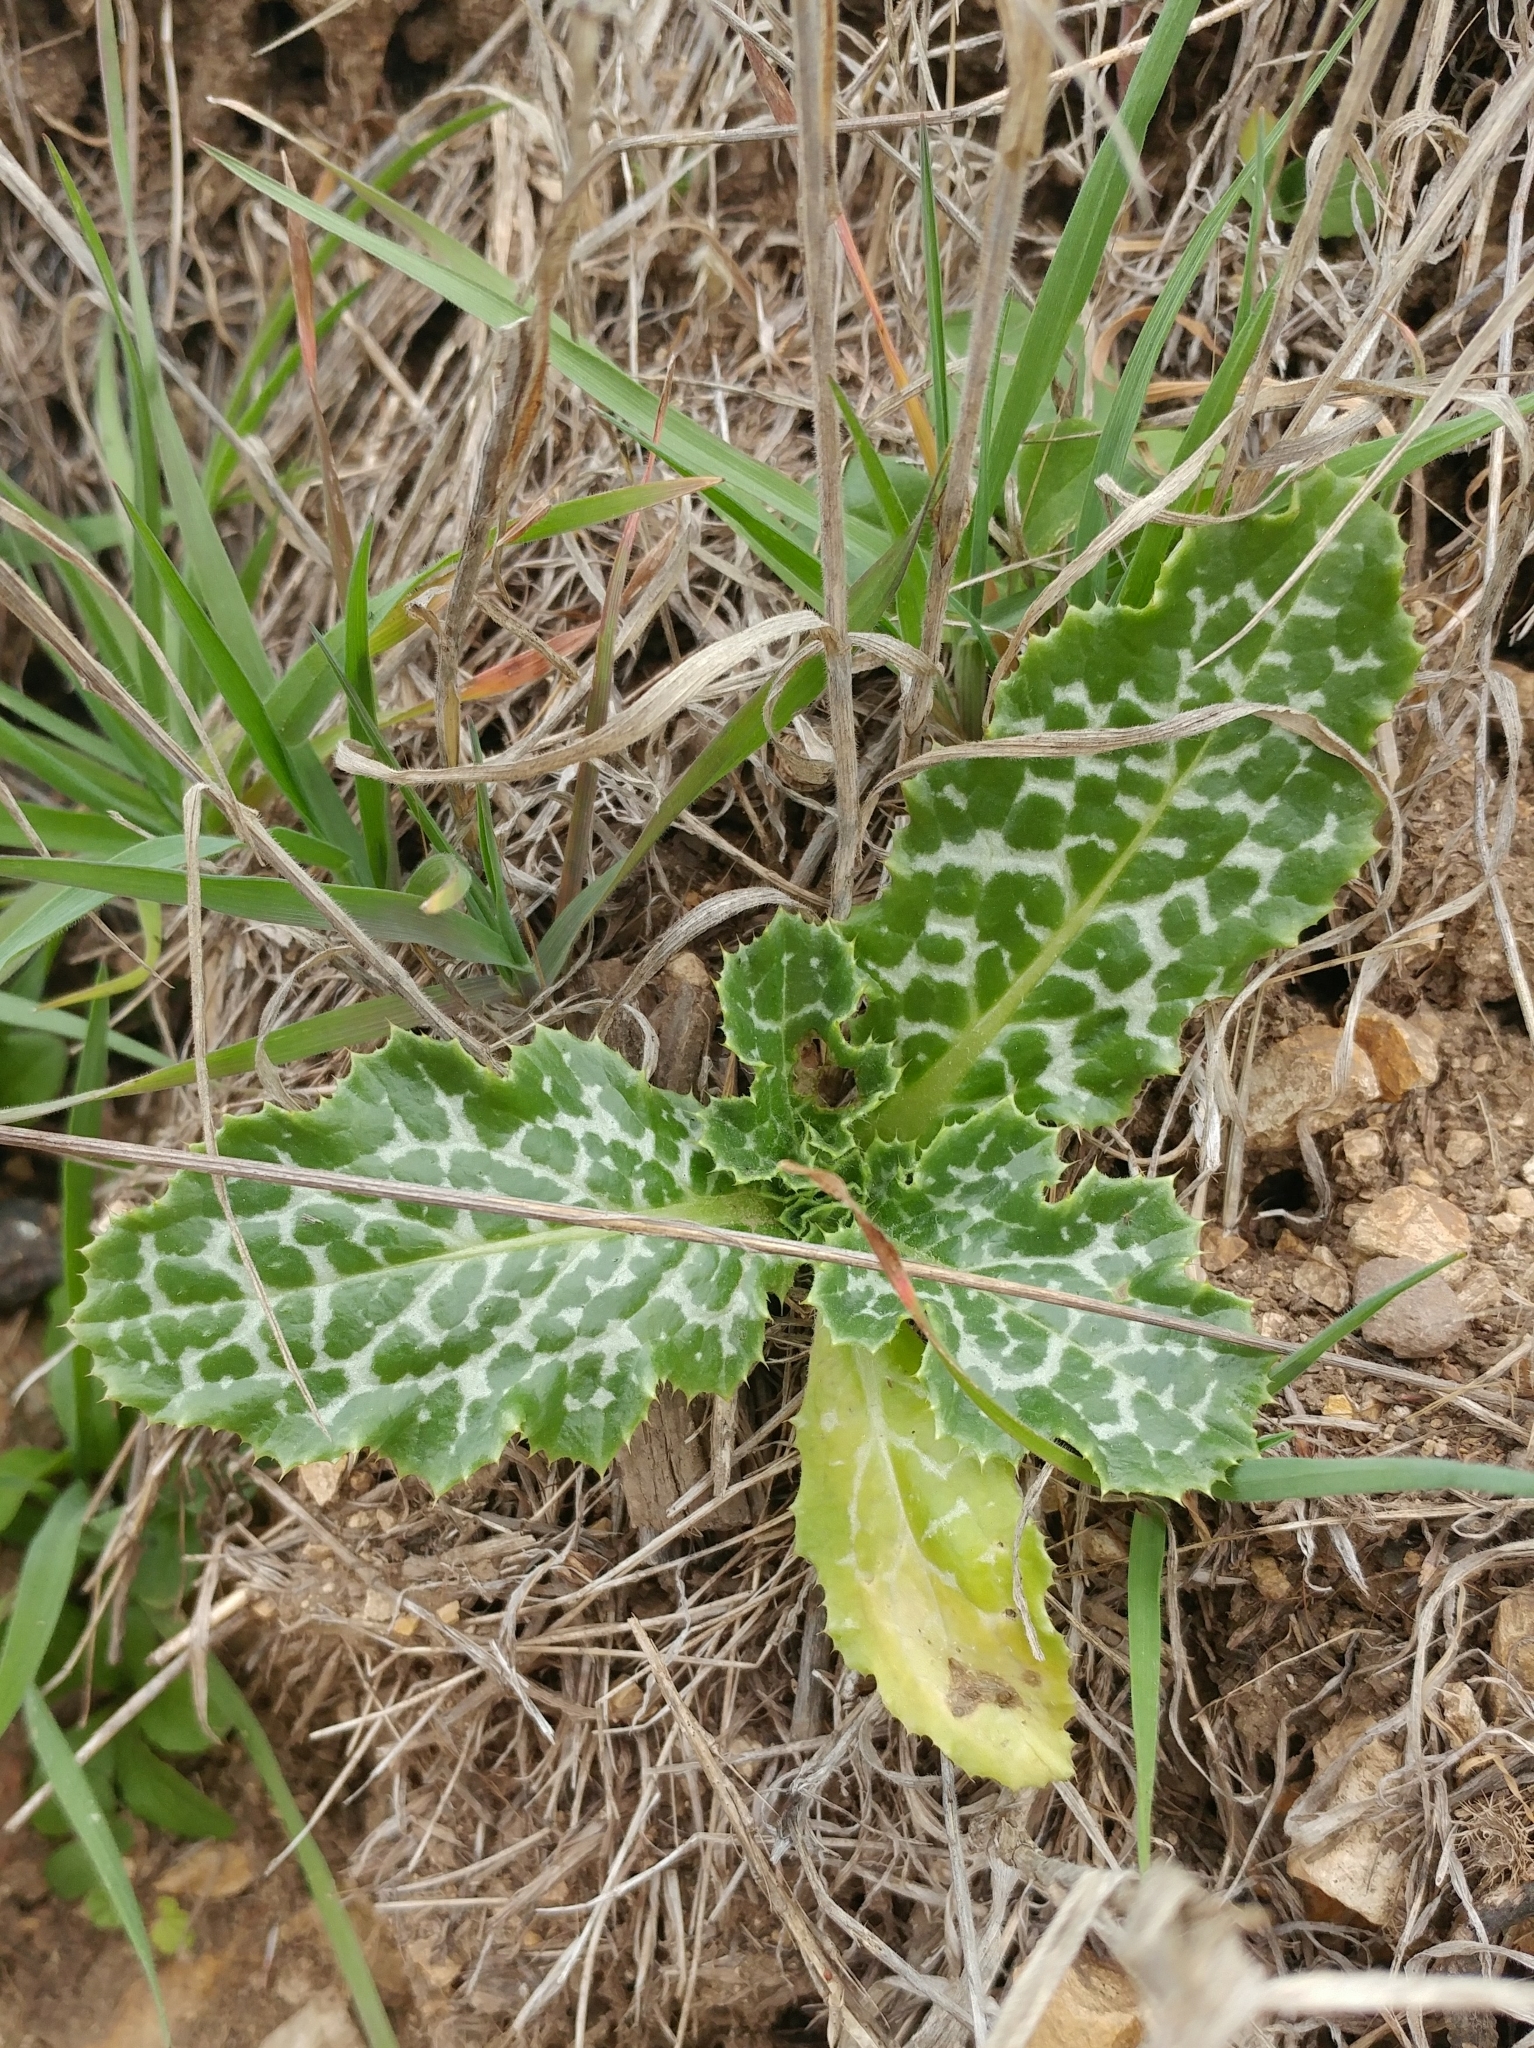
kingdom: Plantae
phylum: Tracheophyta
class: Magnoliopsida
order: Asterales
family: Asteraceae
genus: Silybum
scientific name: Silybum marianum
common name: Milk thistle
